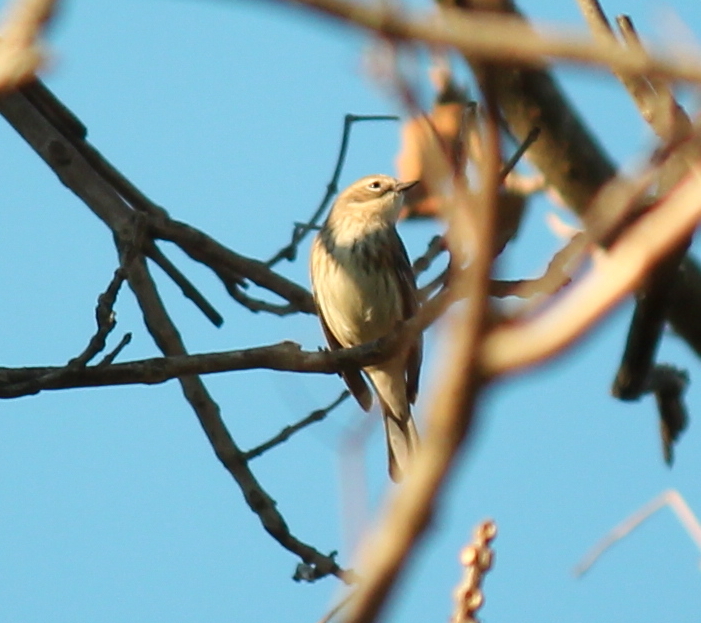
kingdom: Animalia
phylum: Chordata
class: Aves
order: Passeriformes
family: Parulidae
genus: Setophaga
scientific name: Setophaga coronata
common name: Myrtle warbler
